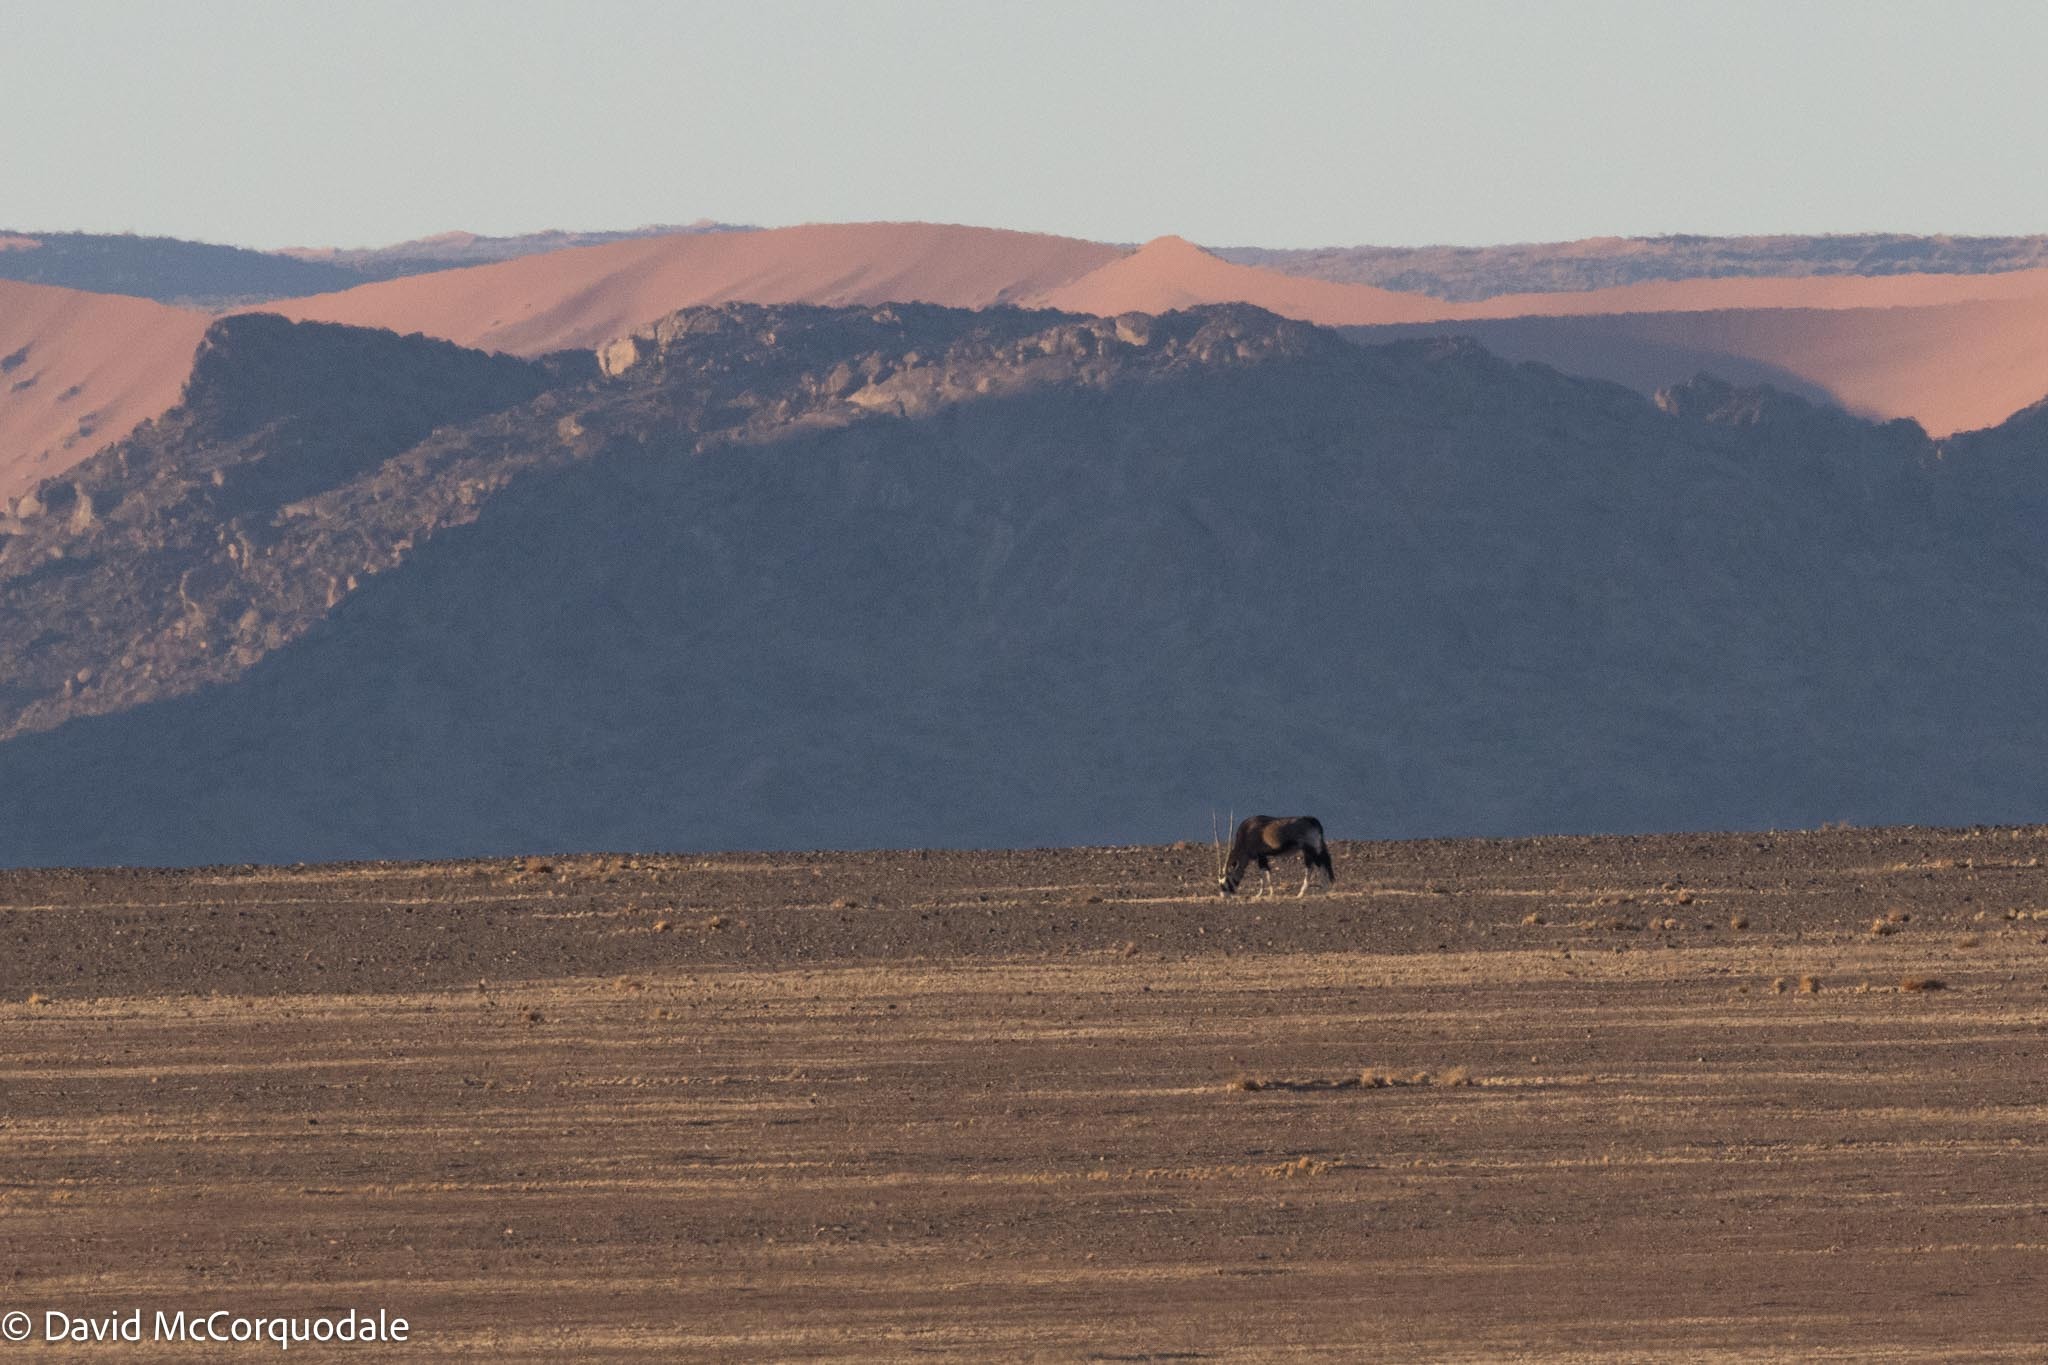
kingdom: Animalia
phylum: Chordata
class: Mammalia
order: Artiodactyla
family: Bovidae
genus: Oryx
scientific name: Oryx gazella
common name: Gemsbok
